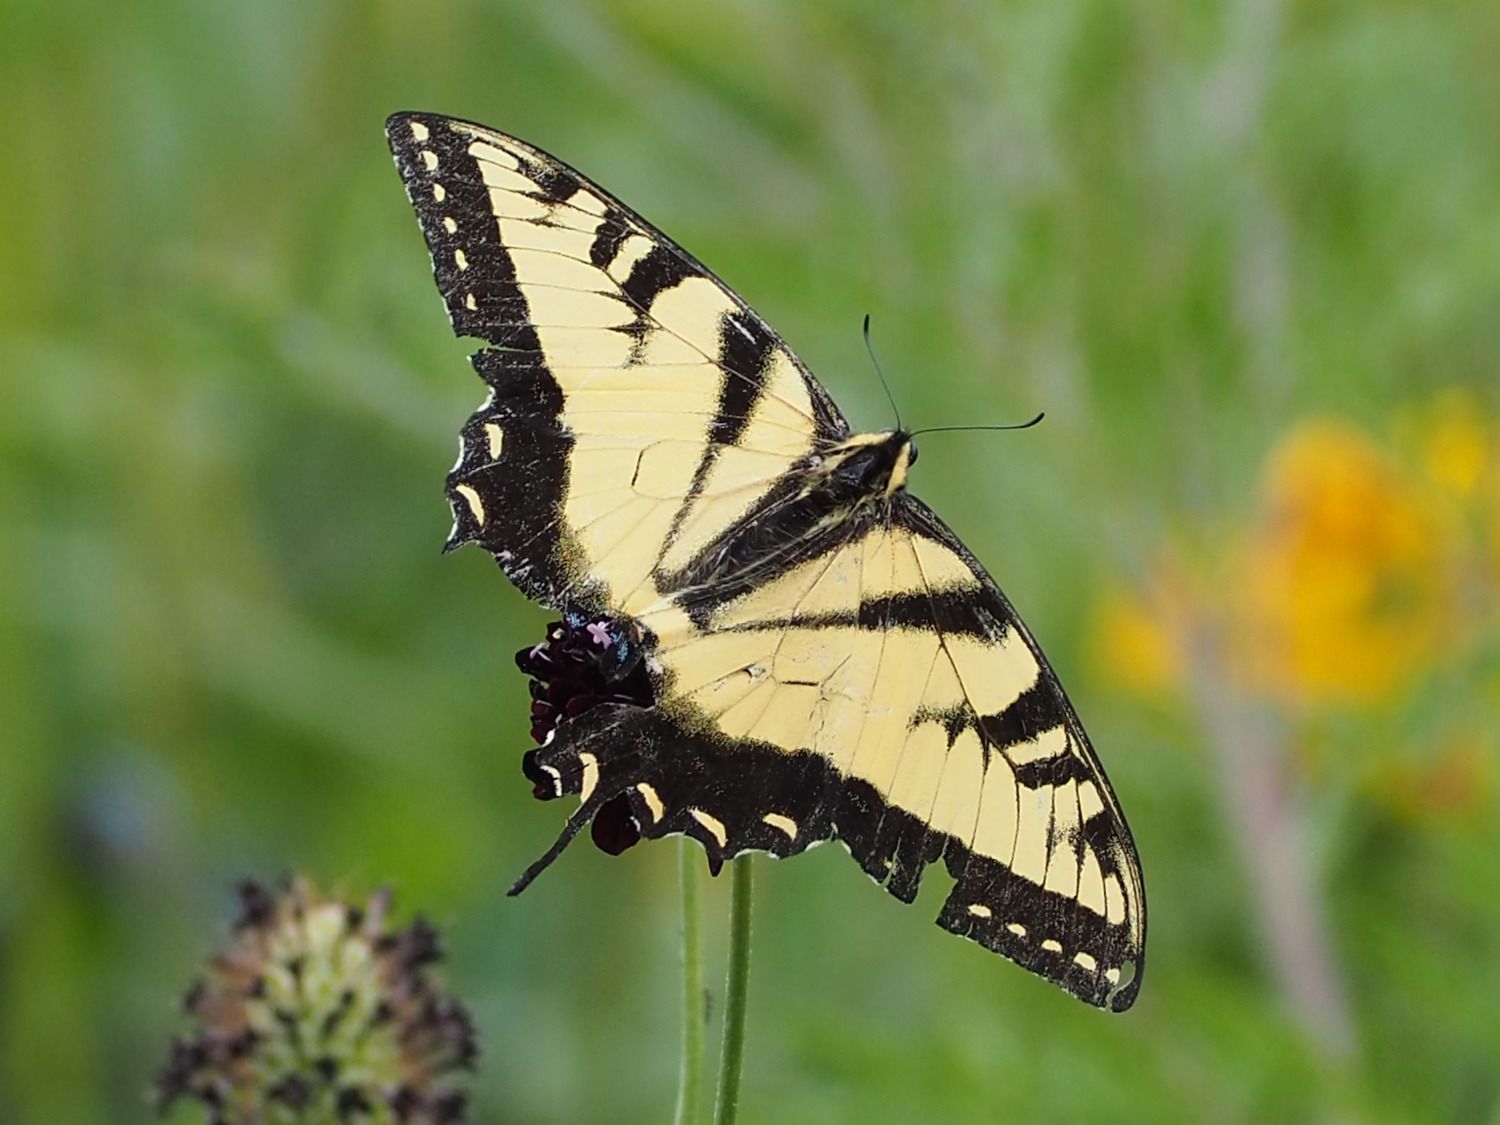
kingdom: Animalia
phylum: Arthropoda
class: Insecta
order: Lepidoptera
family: Papilionidae
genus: Papilio
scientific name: Papilio glaucus
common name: Tiger swallowtail
